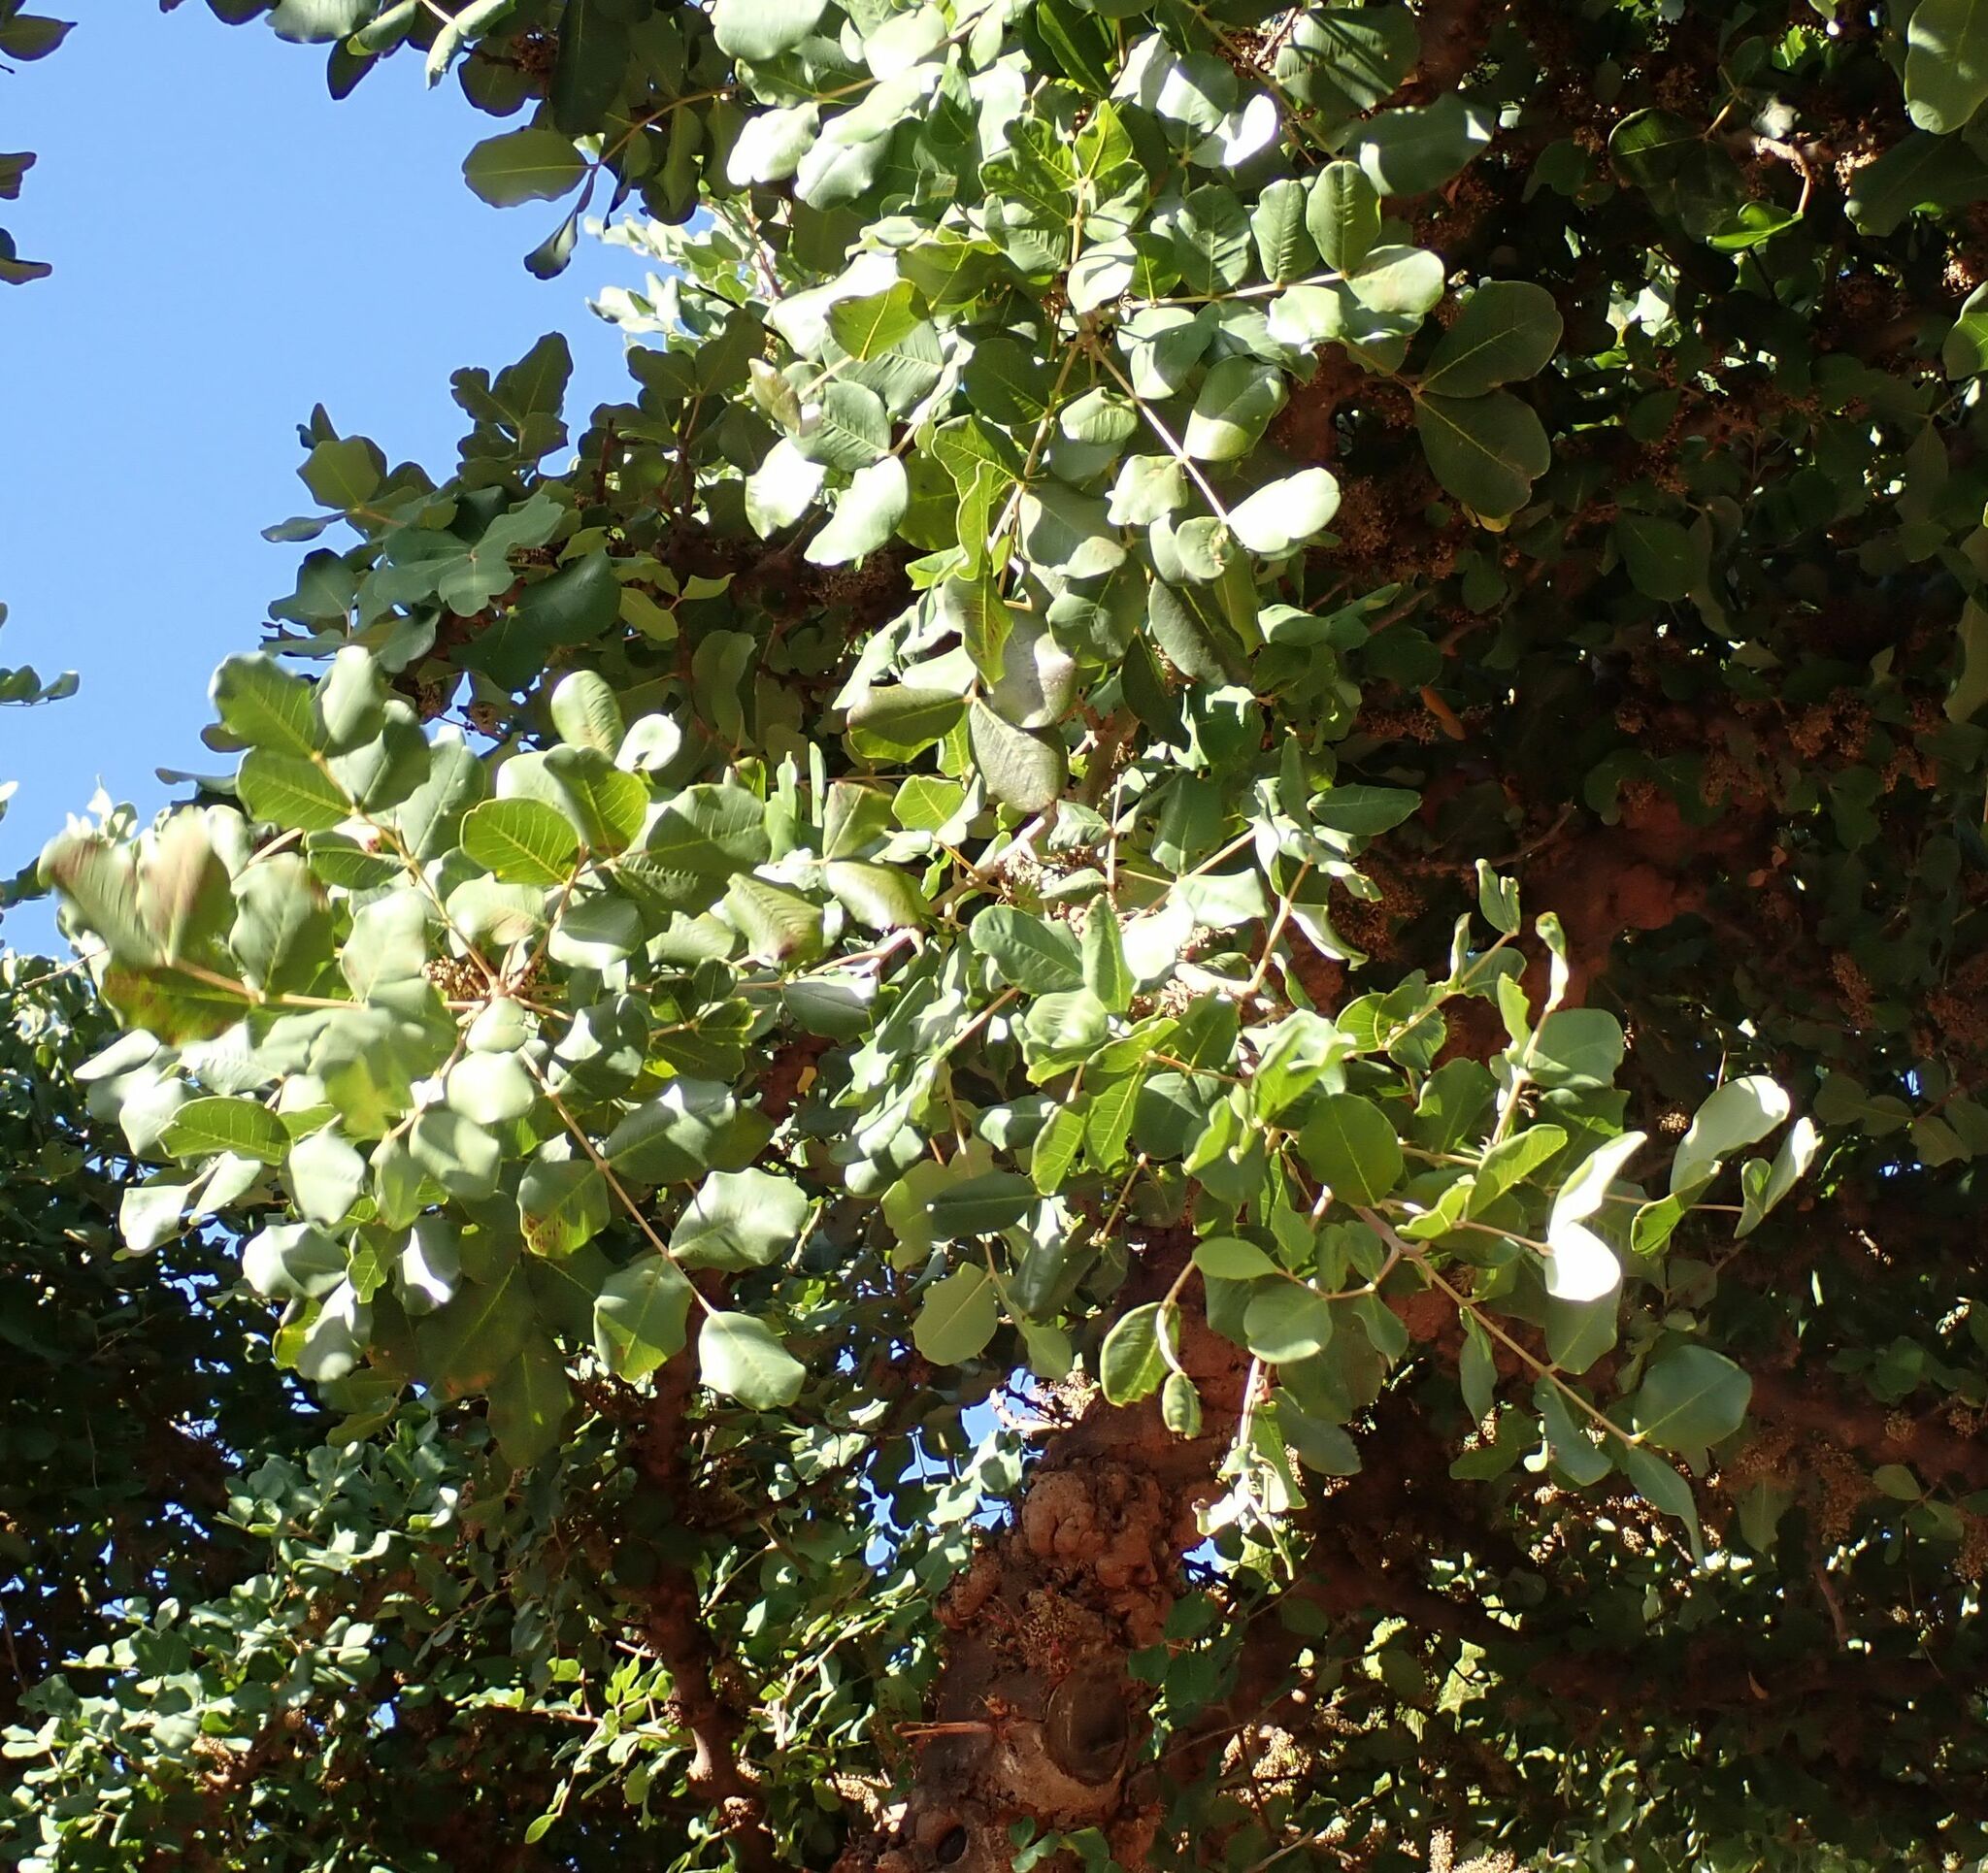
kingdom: Plantae
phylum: Tracheophyta
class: Magnoliopsida
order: Fabales
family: Fabaceae
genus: Ceratonia
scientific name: Ceratonia siliqua
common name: Carob
